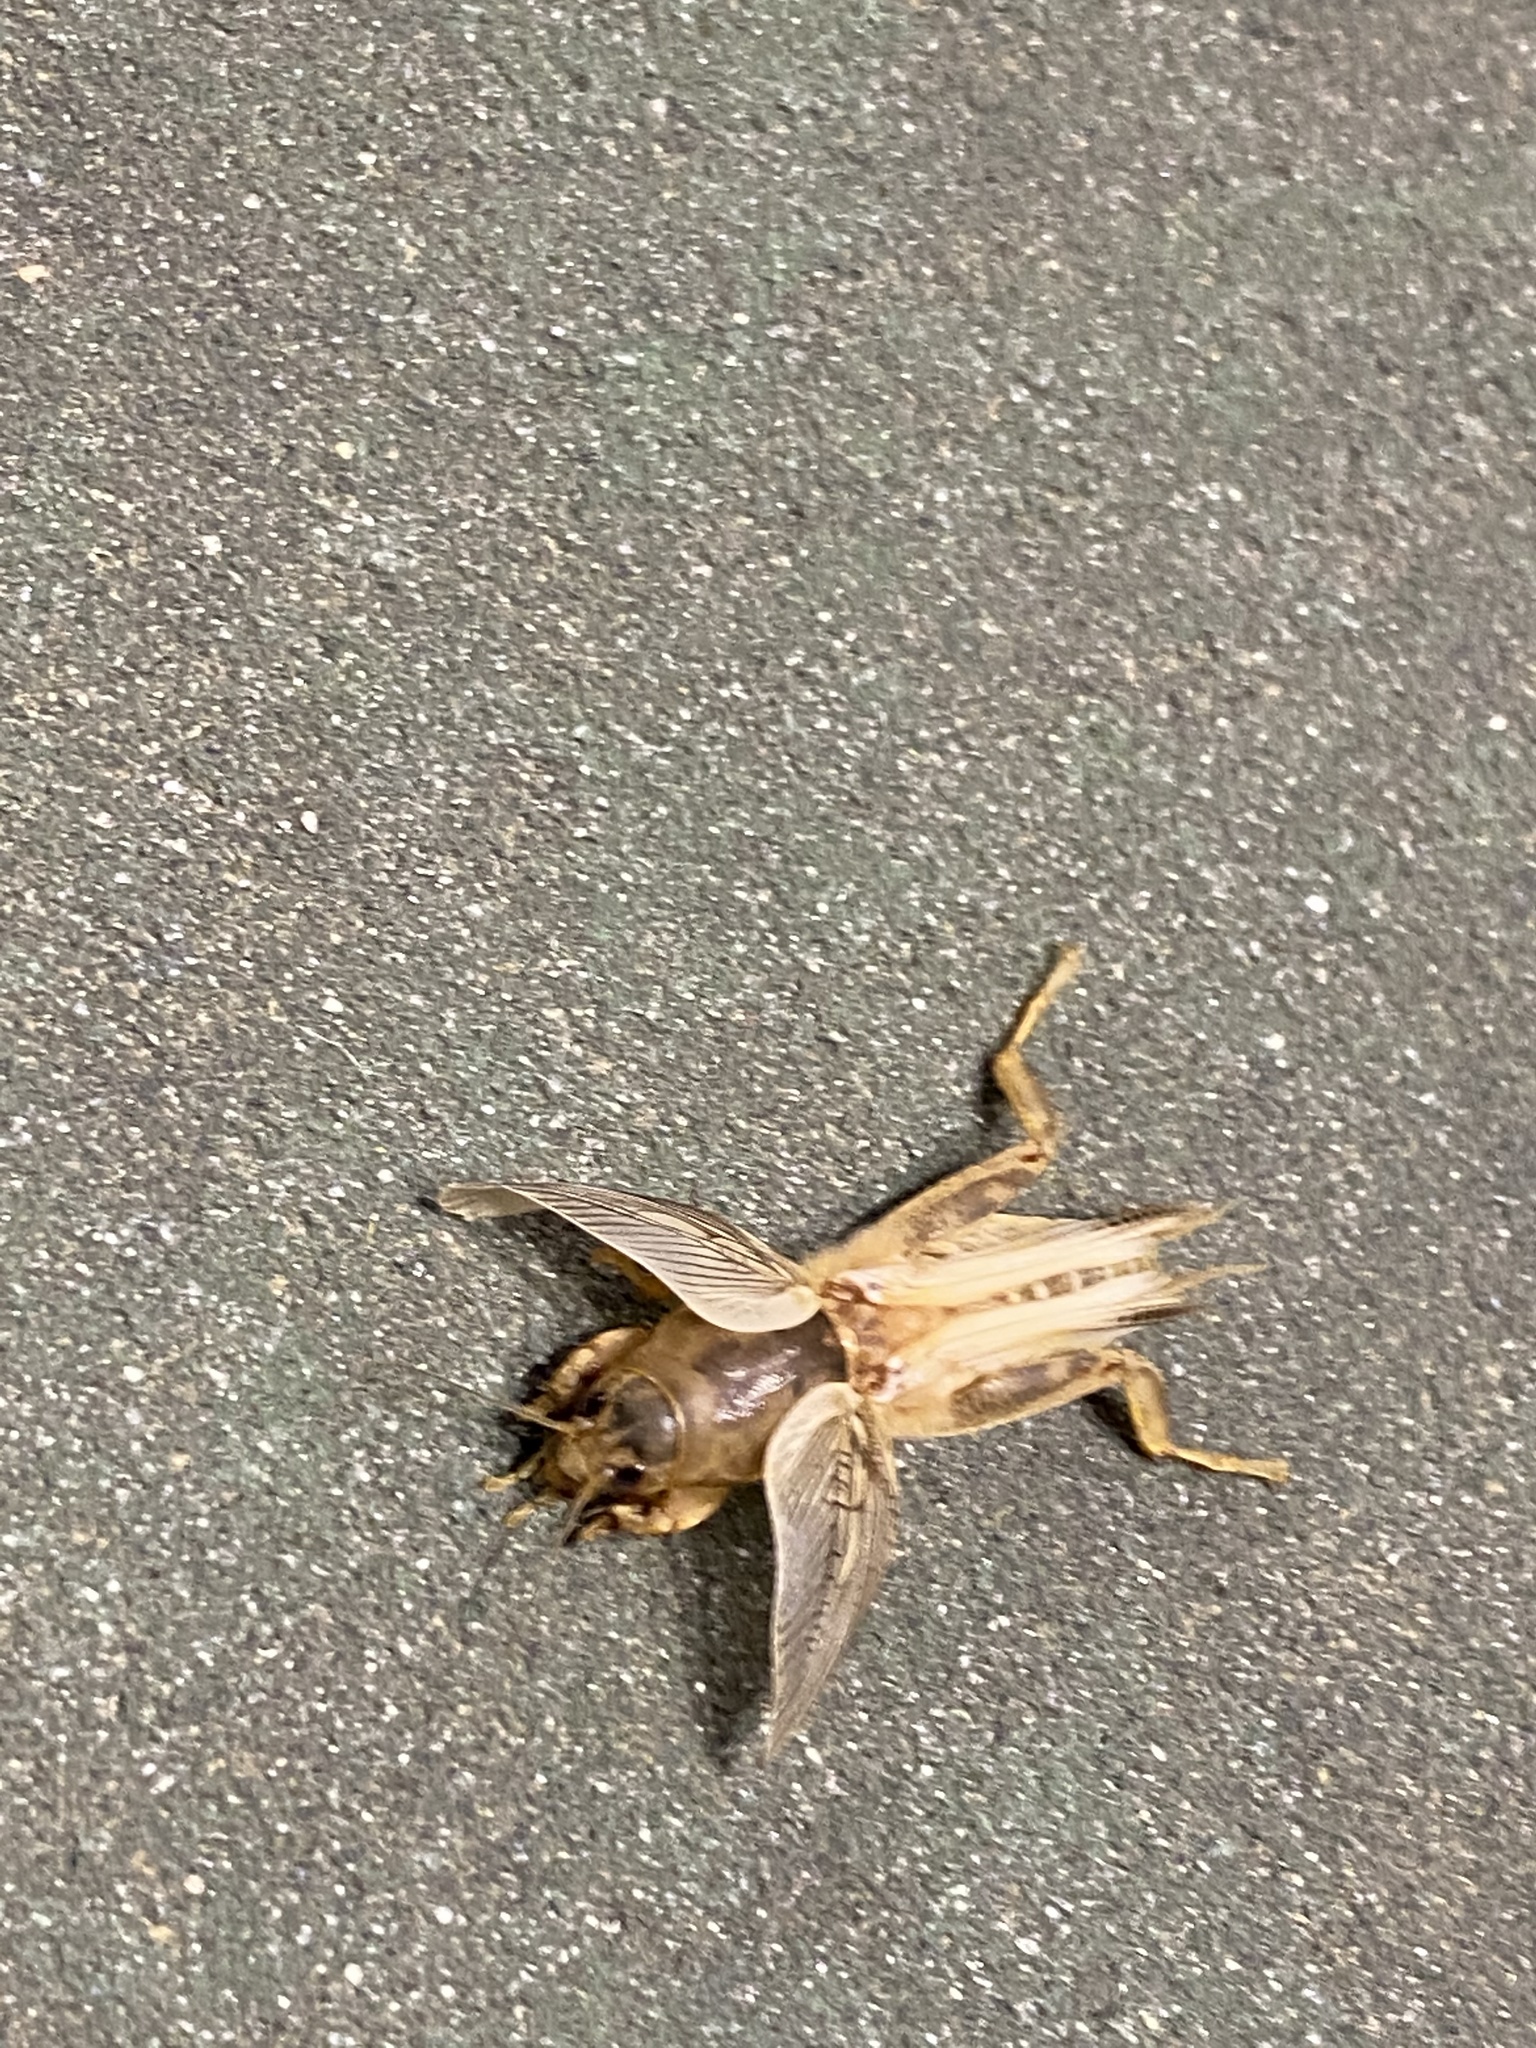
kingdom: Animalia
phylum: Arthropoda
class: Insecta
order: Orthoptera
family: Gryllotalpidae
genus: Neoscapteriscus
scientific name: Neoscapteriscus vicinus
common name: Tawny mole cricket
